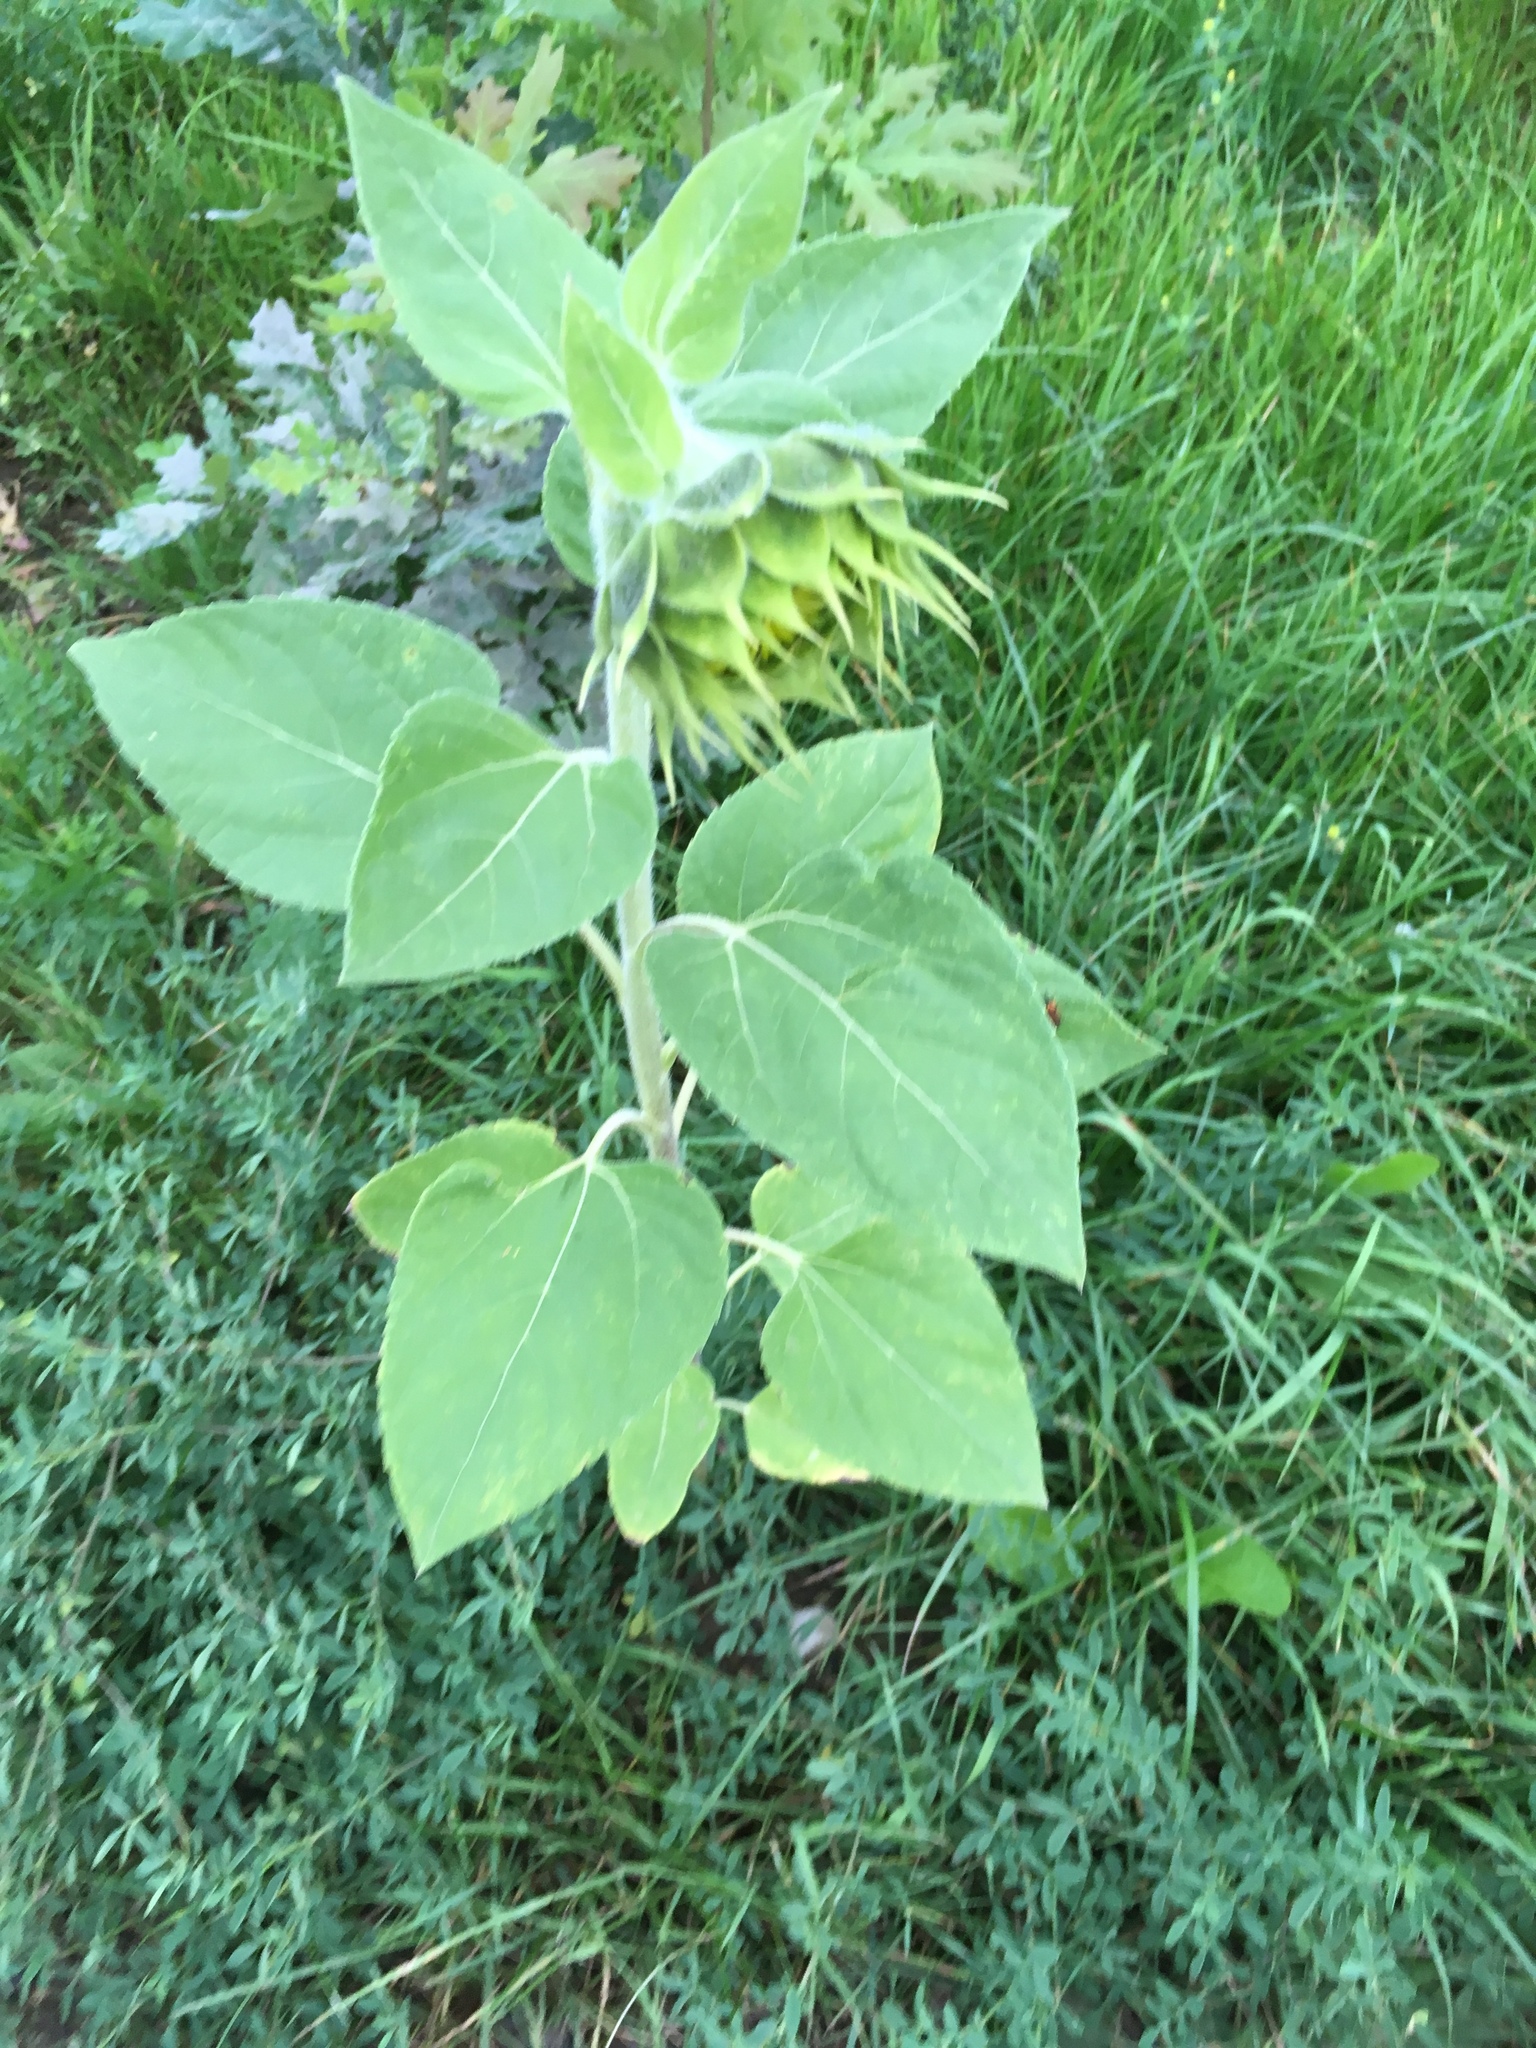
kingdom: Plantae
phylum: Tracheophyta
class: Magnoliopsida
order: Asterales
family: Asteraceae
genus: Helianthus
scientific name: Helianthus annuus
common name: Sunflower
